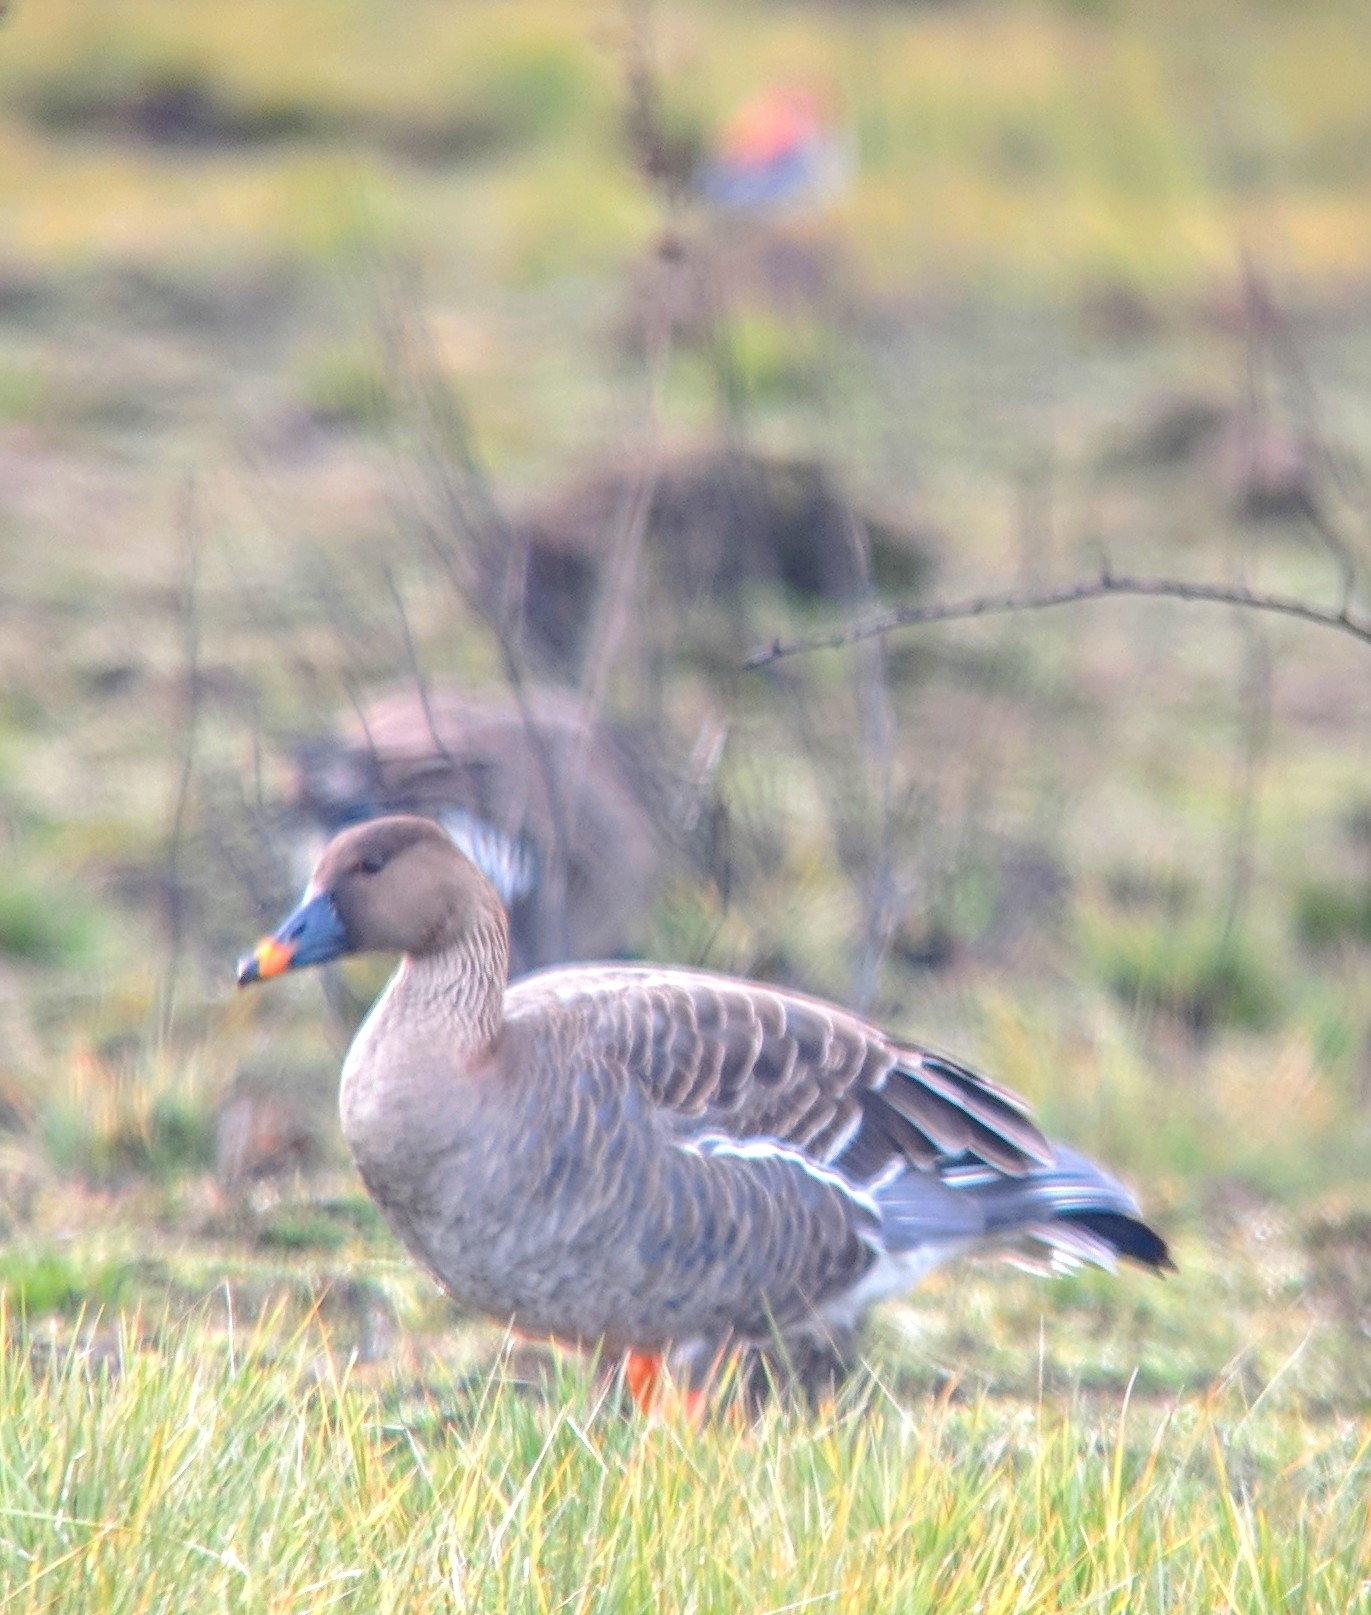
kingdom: Animalia
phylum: Chordata
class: Aves
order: Anseriformes
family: Anatidae
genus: Anser
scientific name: Anser serrirostris
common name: Tundra bean goose
